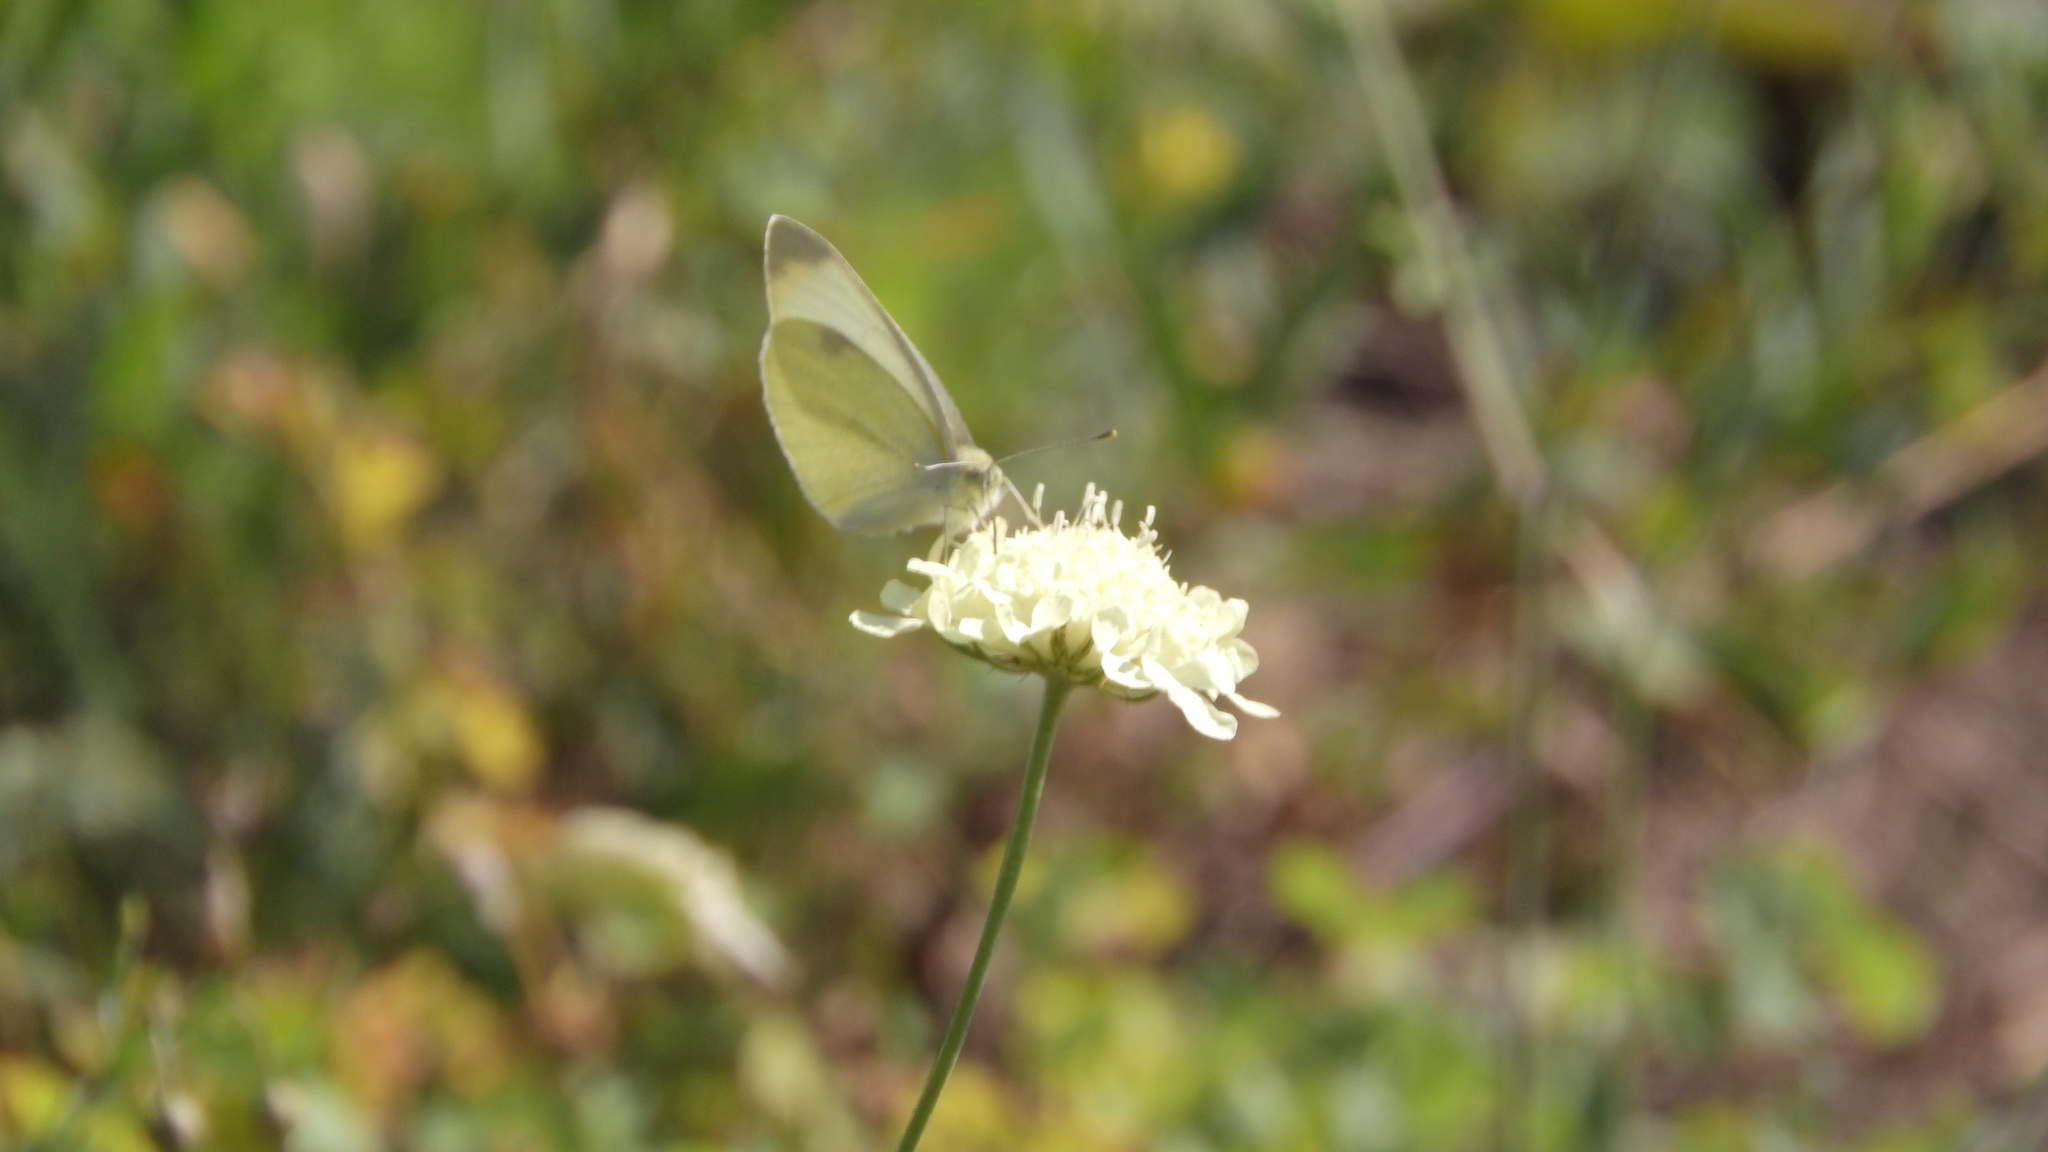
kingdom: Animalia
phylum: Arthropoda
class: Insecta
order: Lepidoptera
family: Pieridae
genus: Pieris
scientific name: Pieris rapae
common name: Small white
